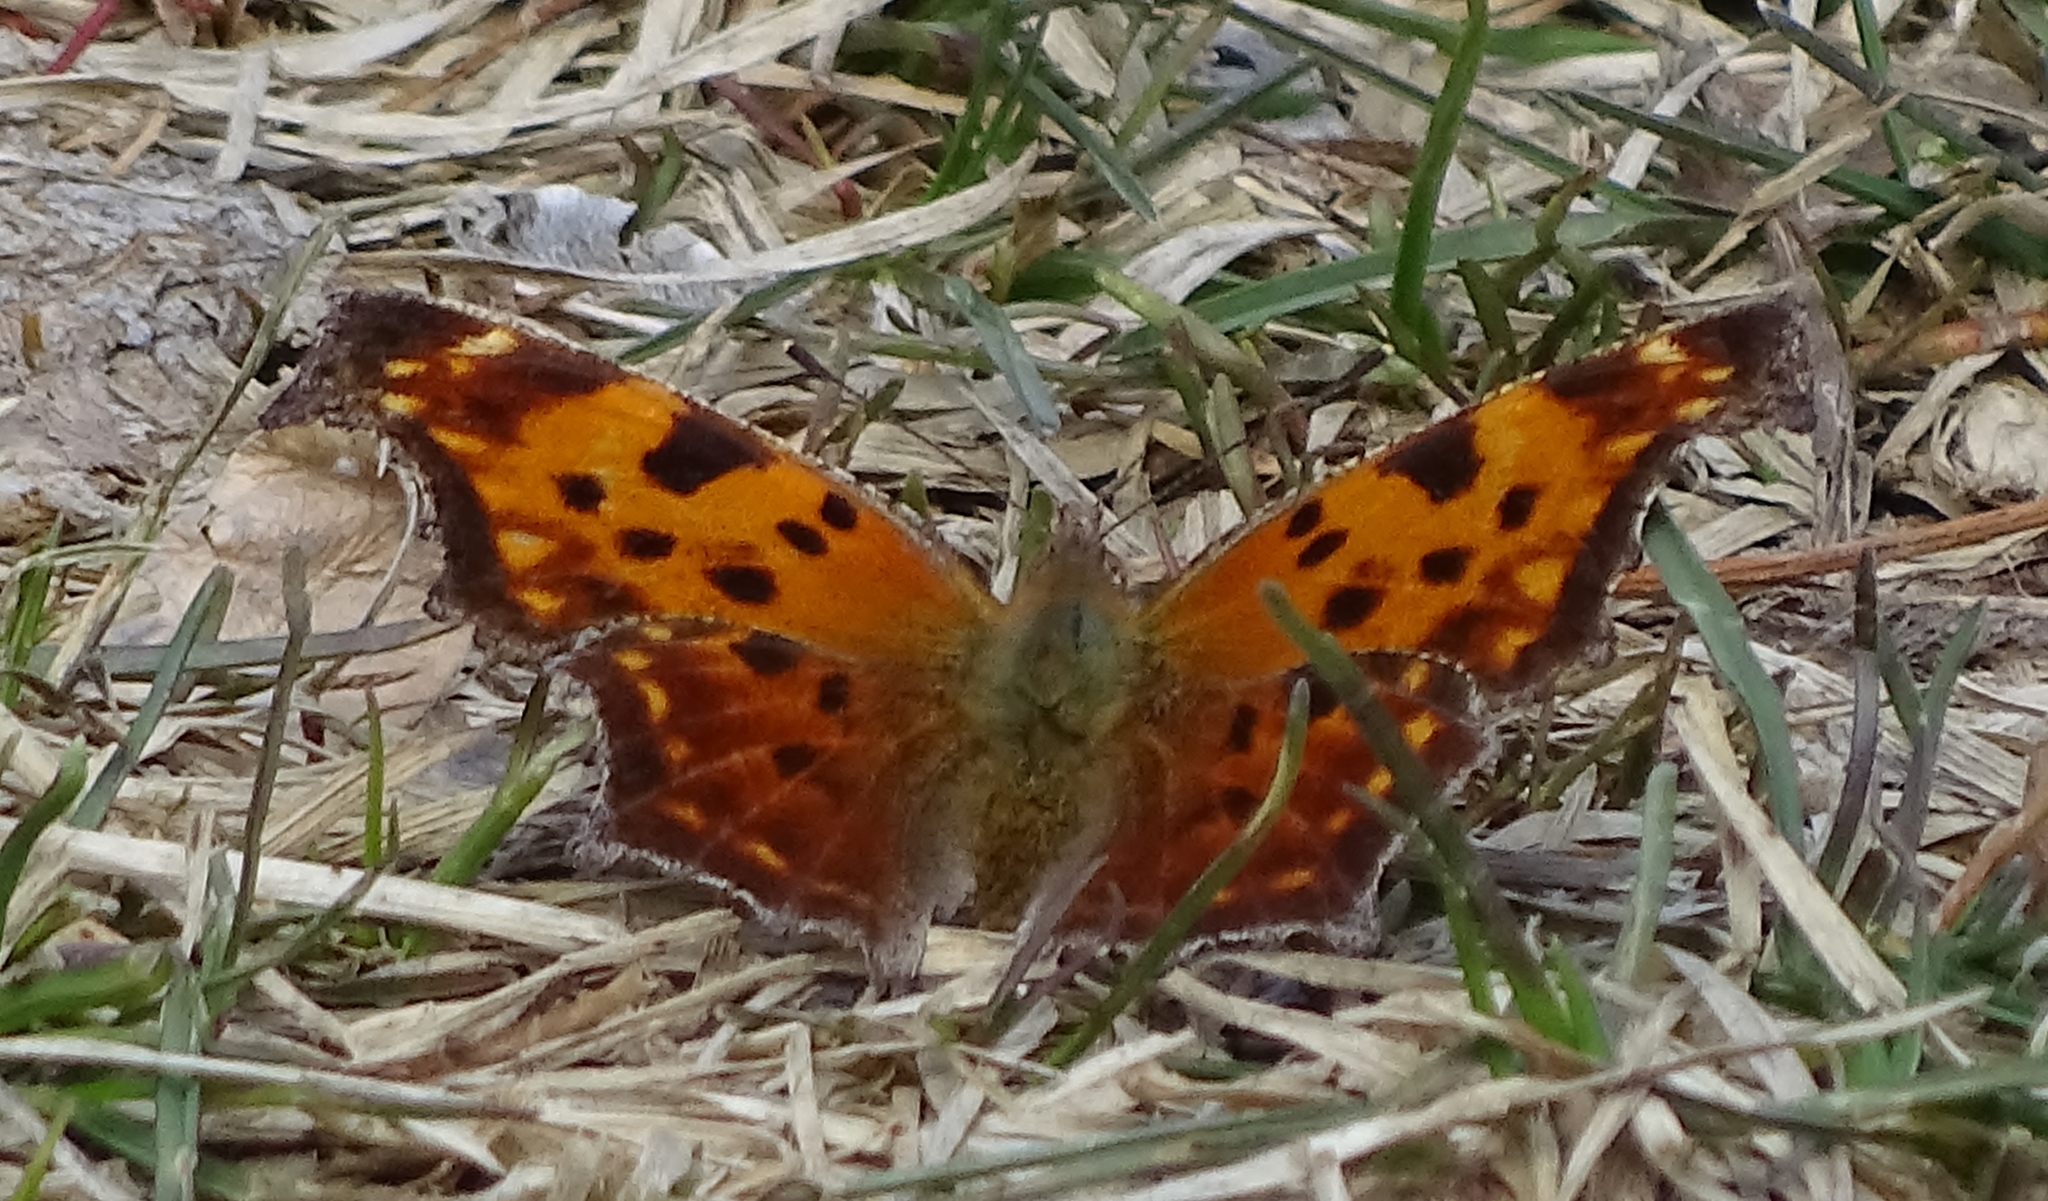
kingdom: Animalia
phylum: Arthropoda
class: Insecta
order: Lepidoptera
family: Nymphalidae
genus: Polygonia
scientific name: Polygonia comma
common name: Eastern comma
